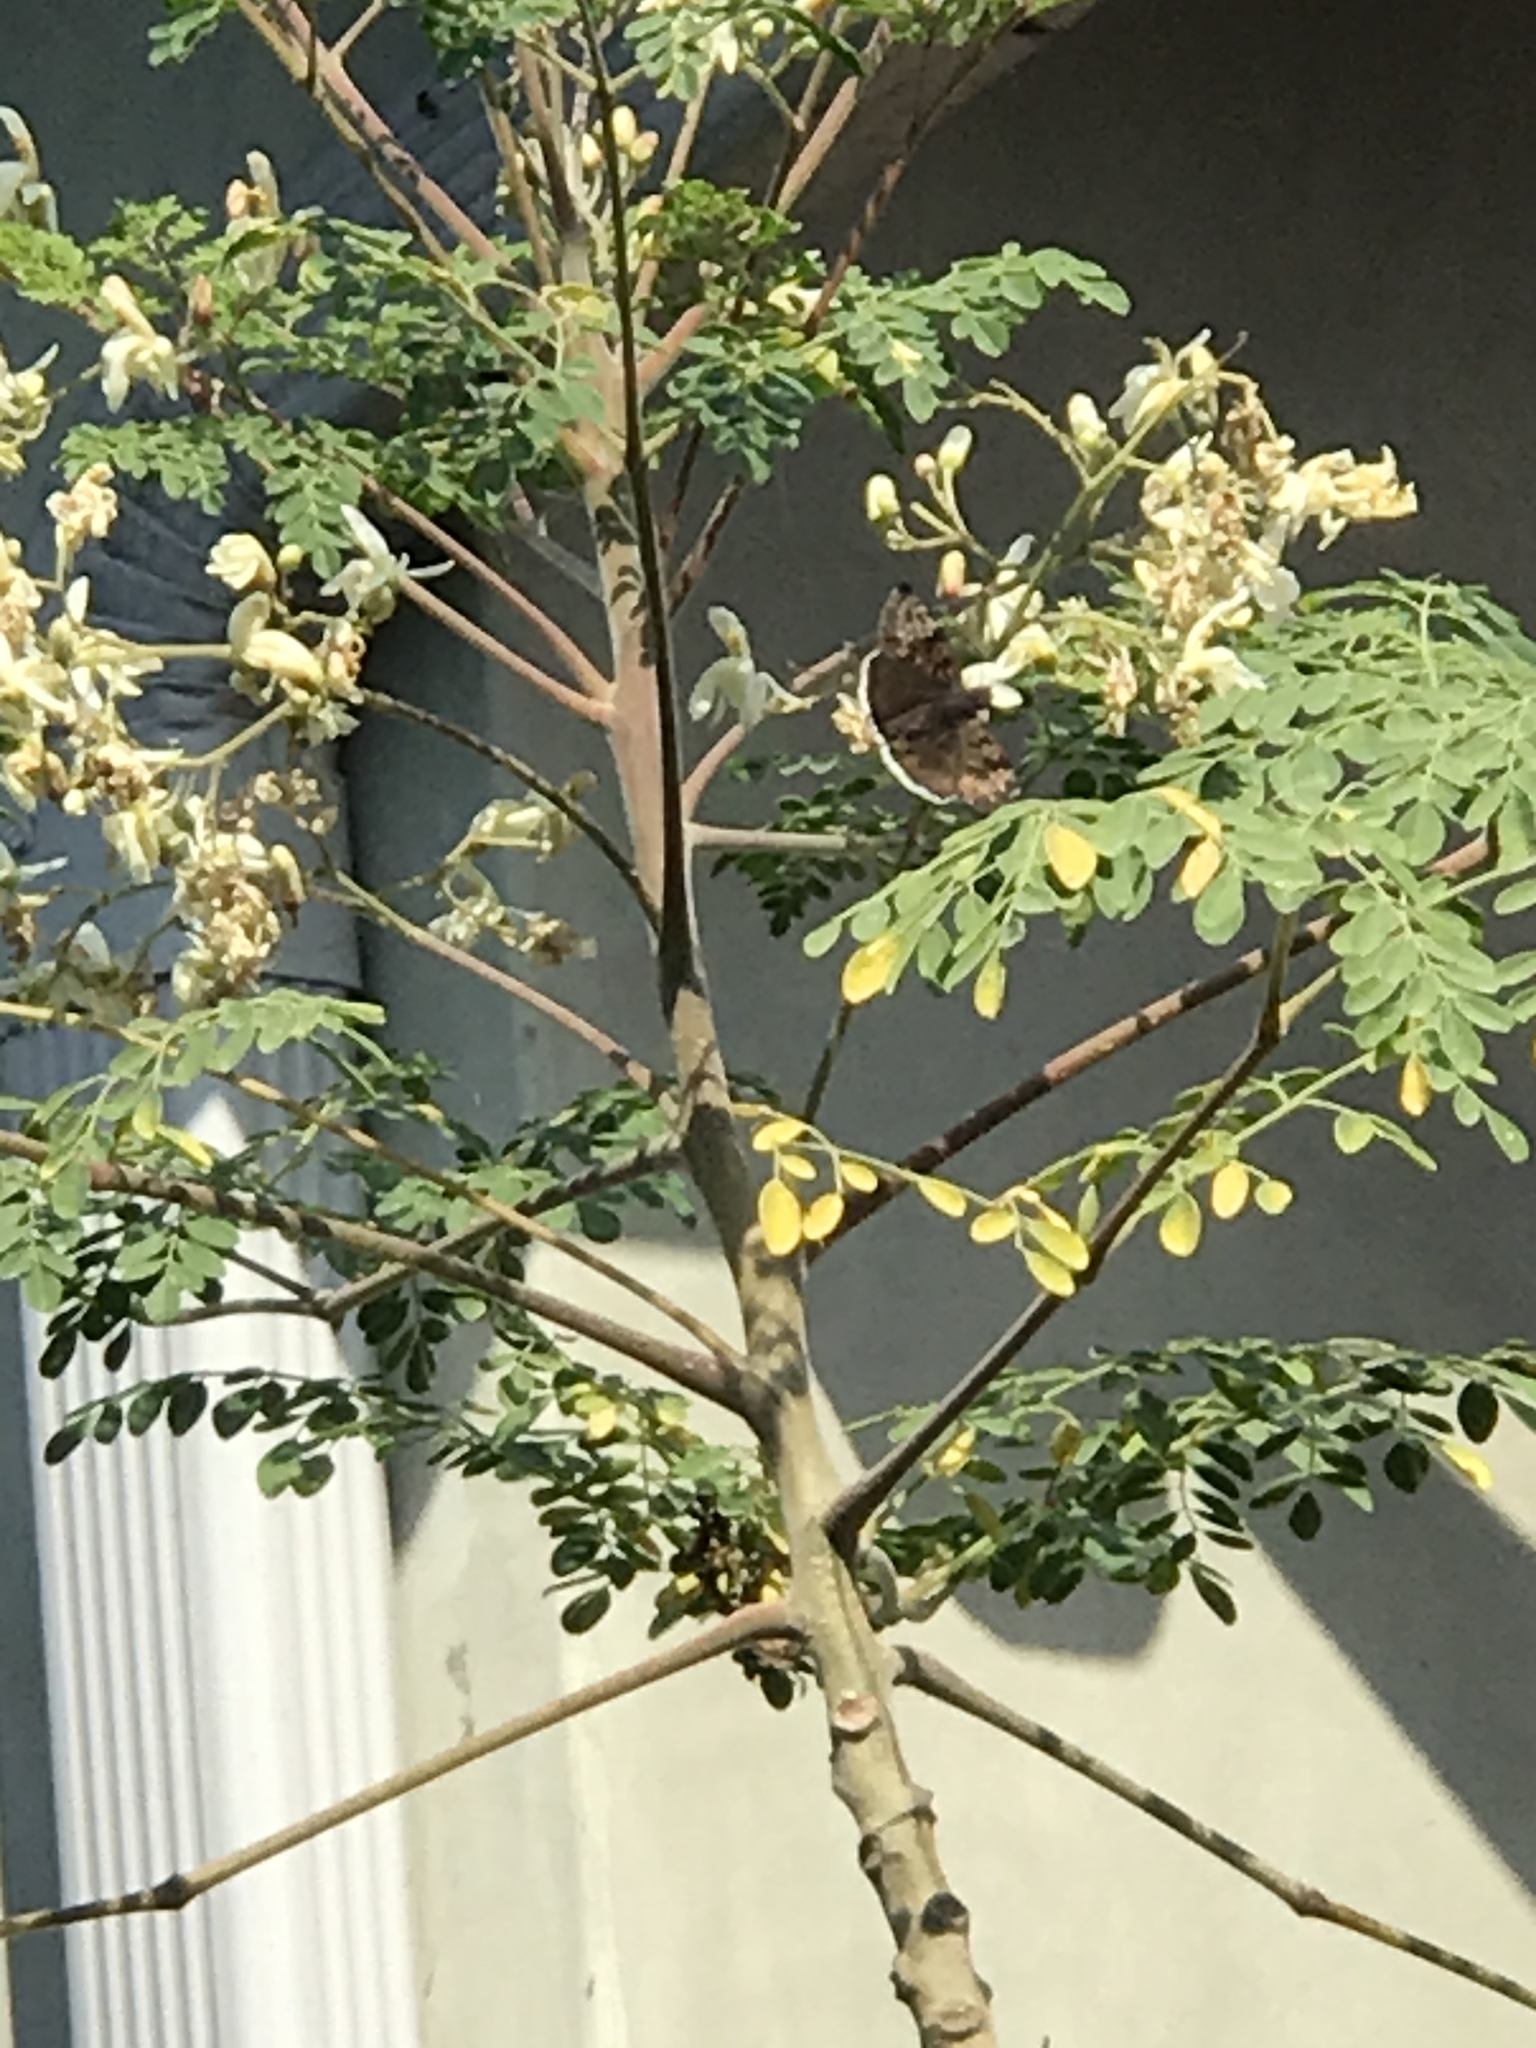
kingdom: Animalia
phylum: Arthropoda
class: Insecta
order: Lepidoptera
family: Hesperiidae
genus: Erynnis
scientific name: Erynnis tristis
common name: Mournful duskywing
